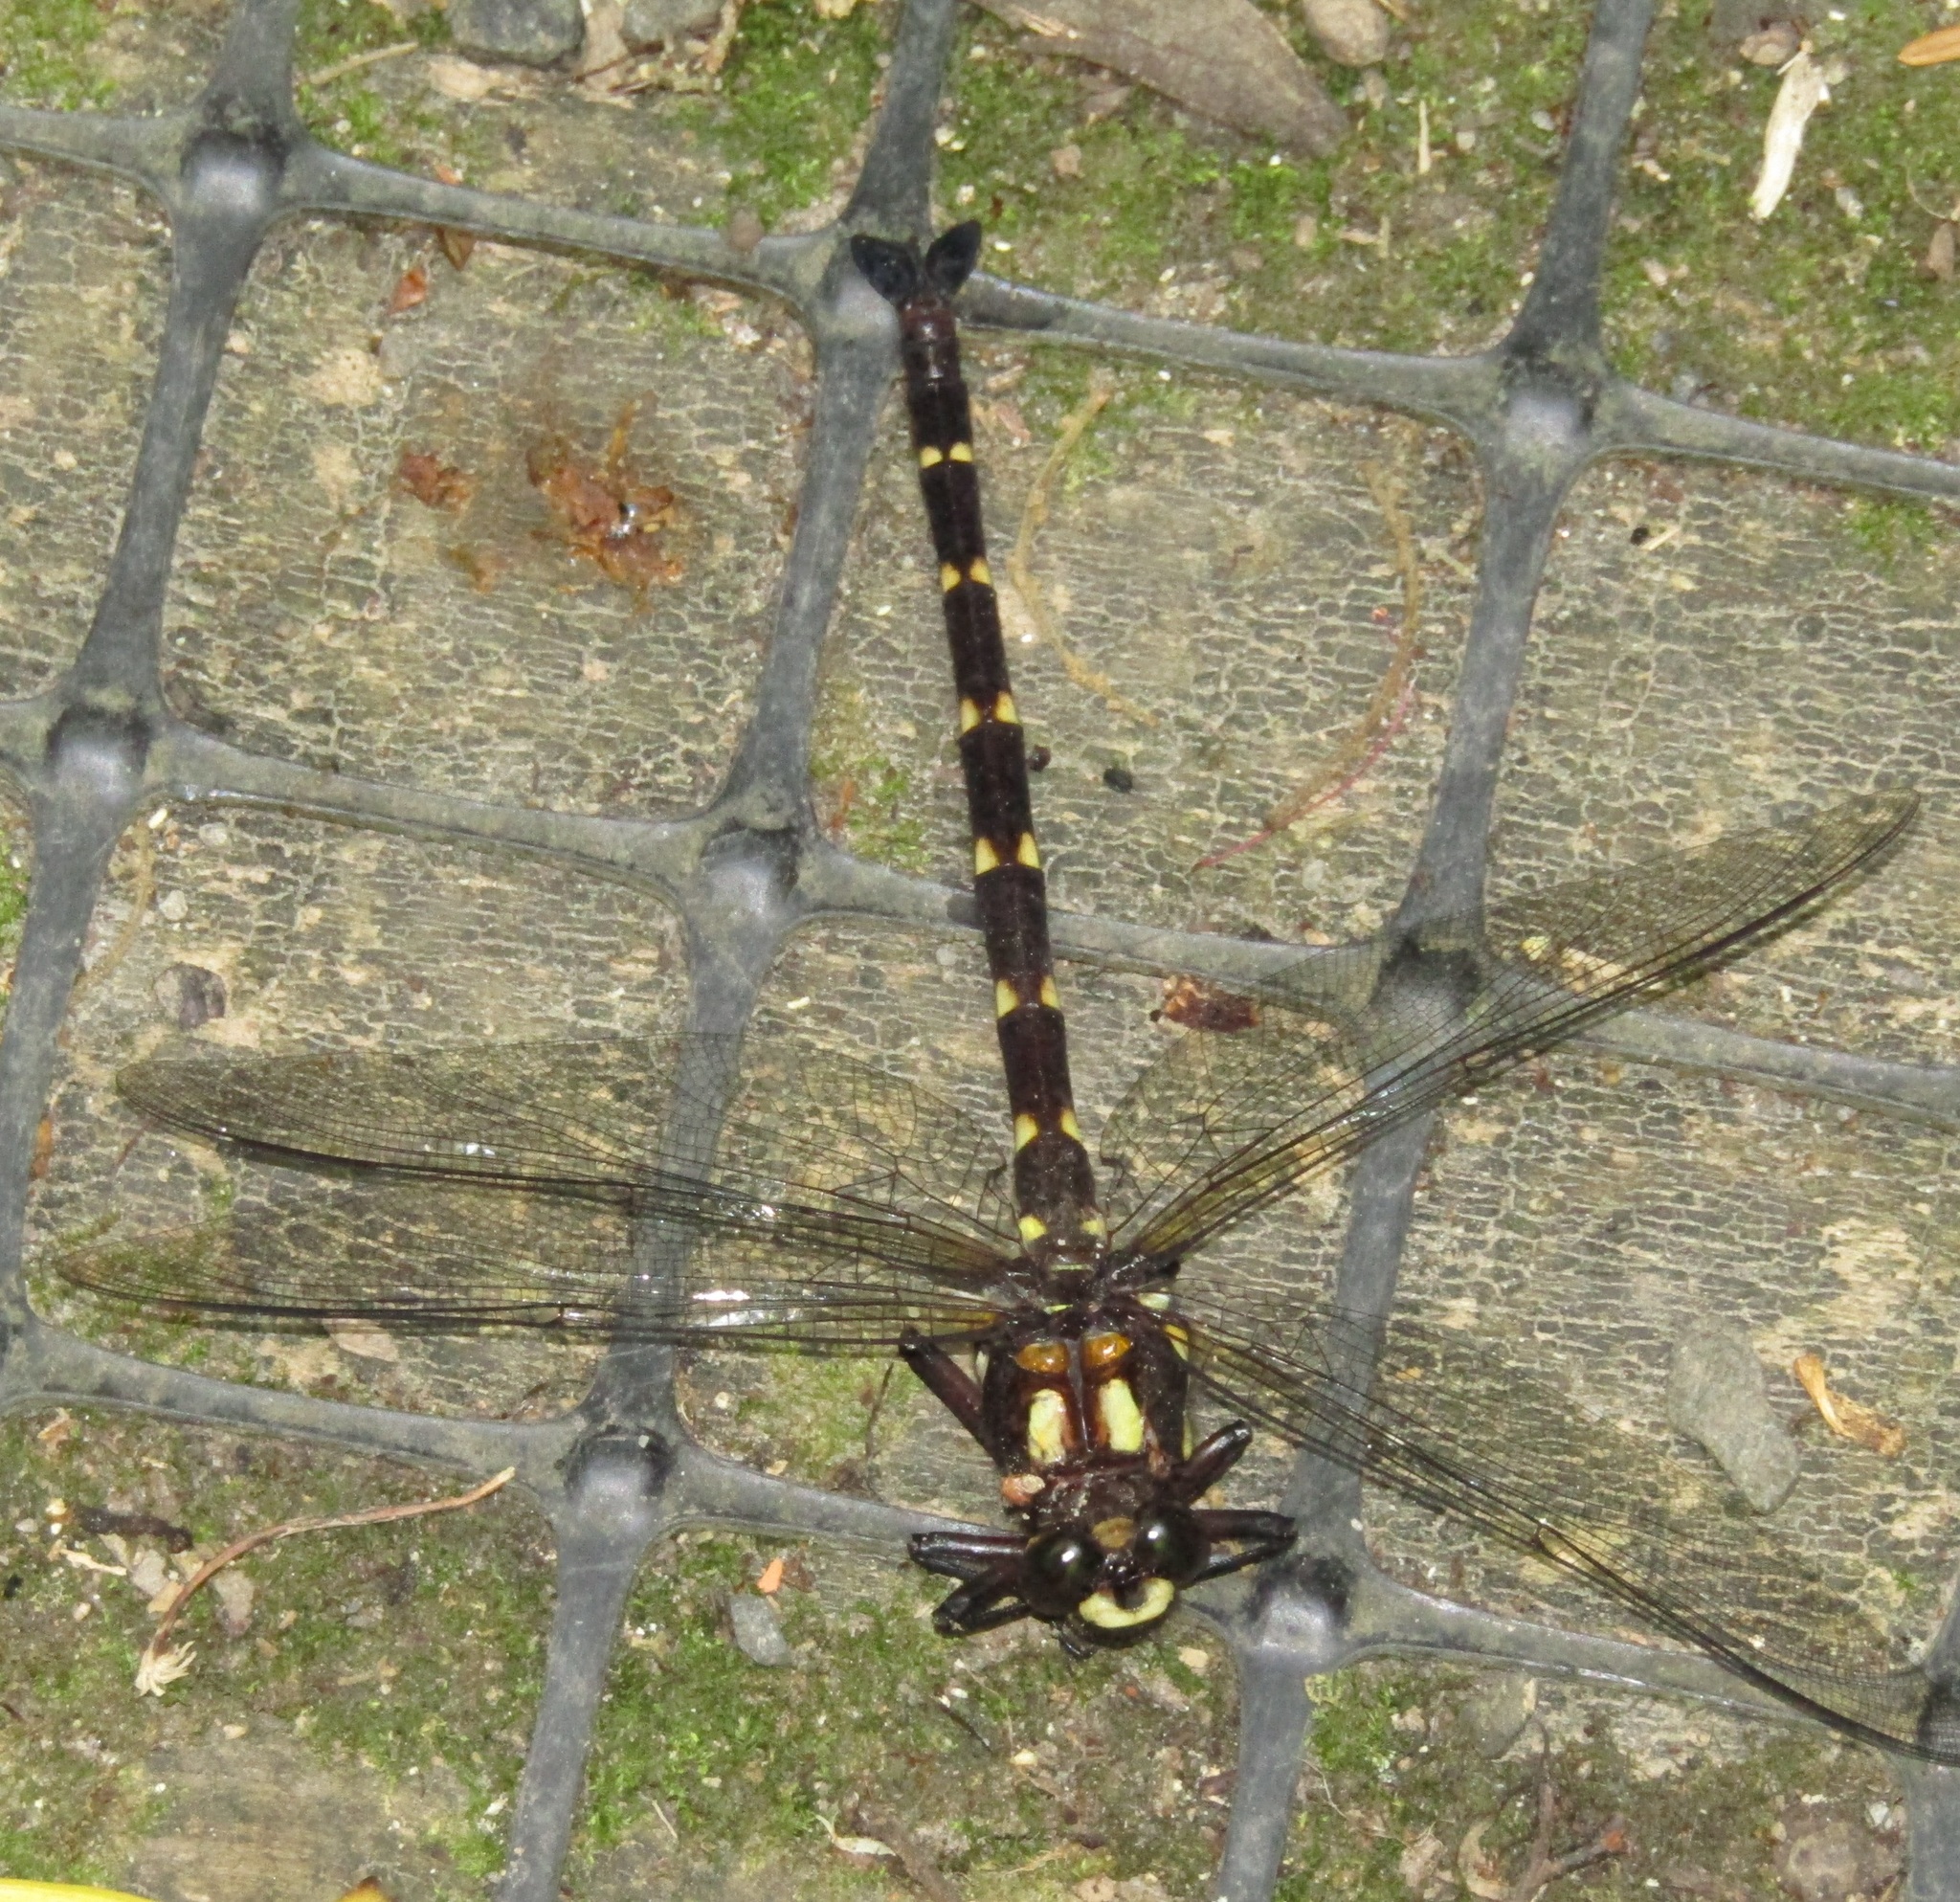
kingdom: Animalia
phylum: Arthropoda
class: Insecta
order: Odonata
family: Petaluridae
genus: Uropetala
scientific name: Uropetala carovei
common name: Bush giant dragonfly
